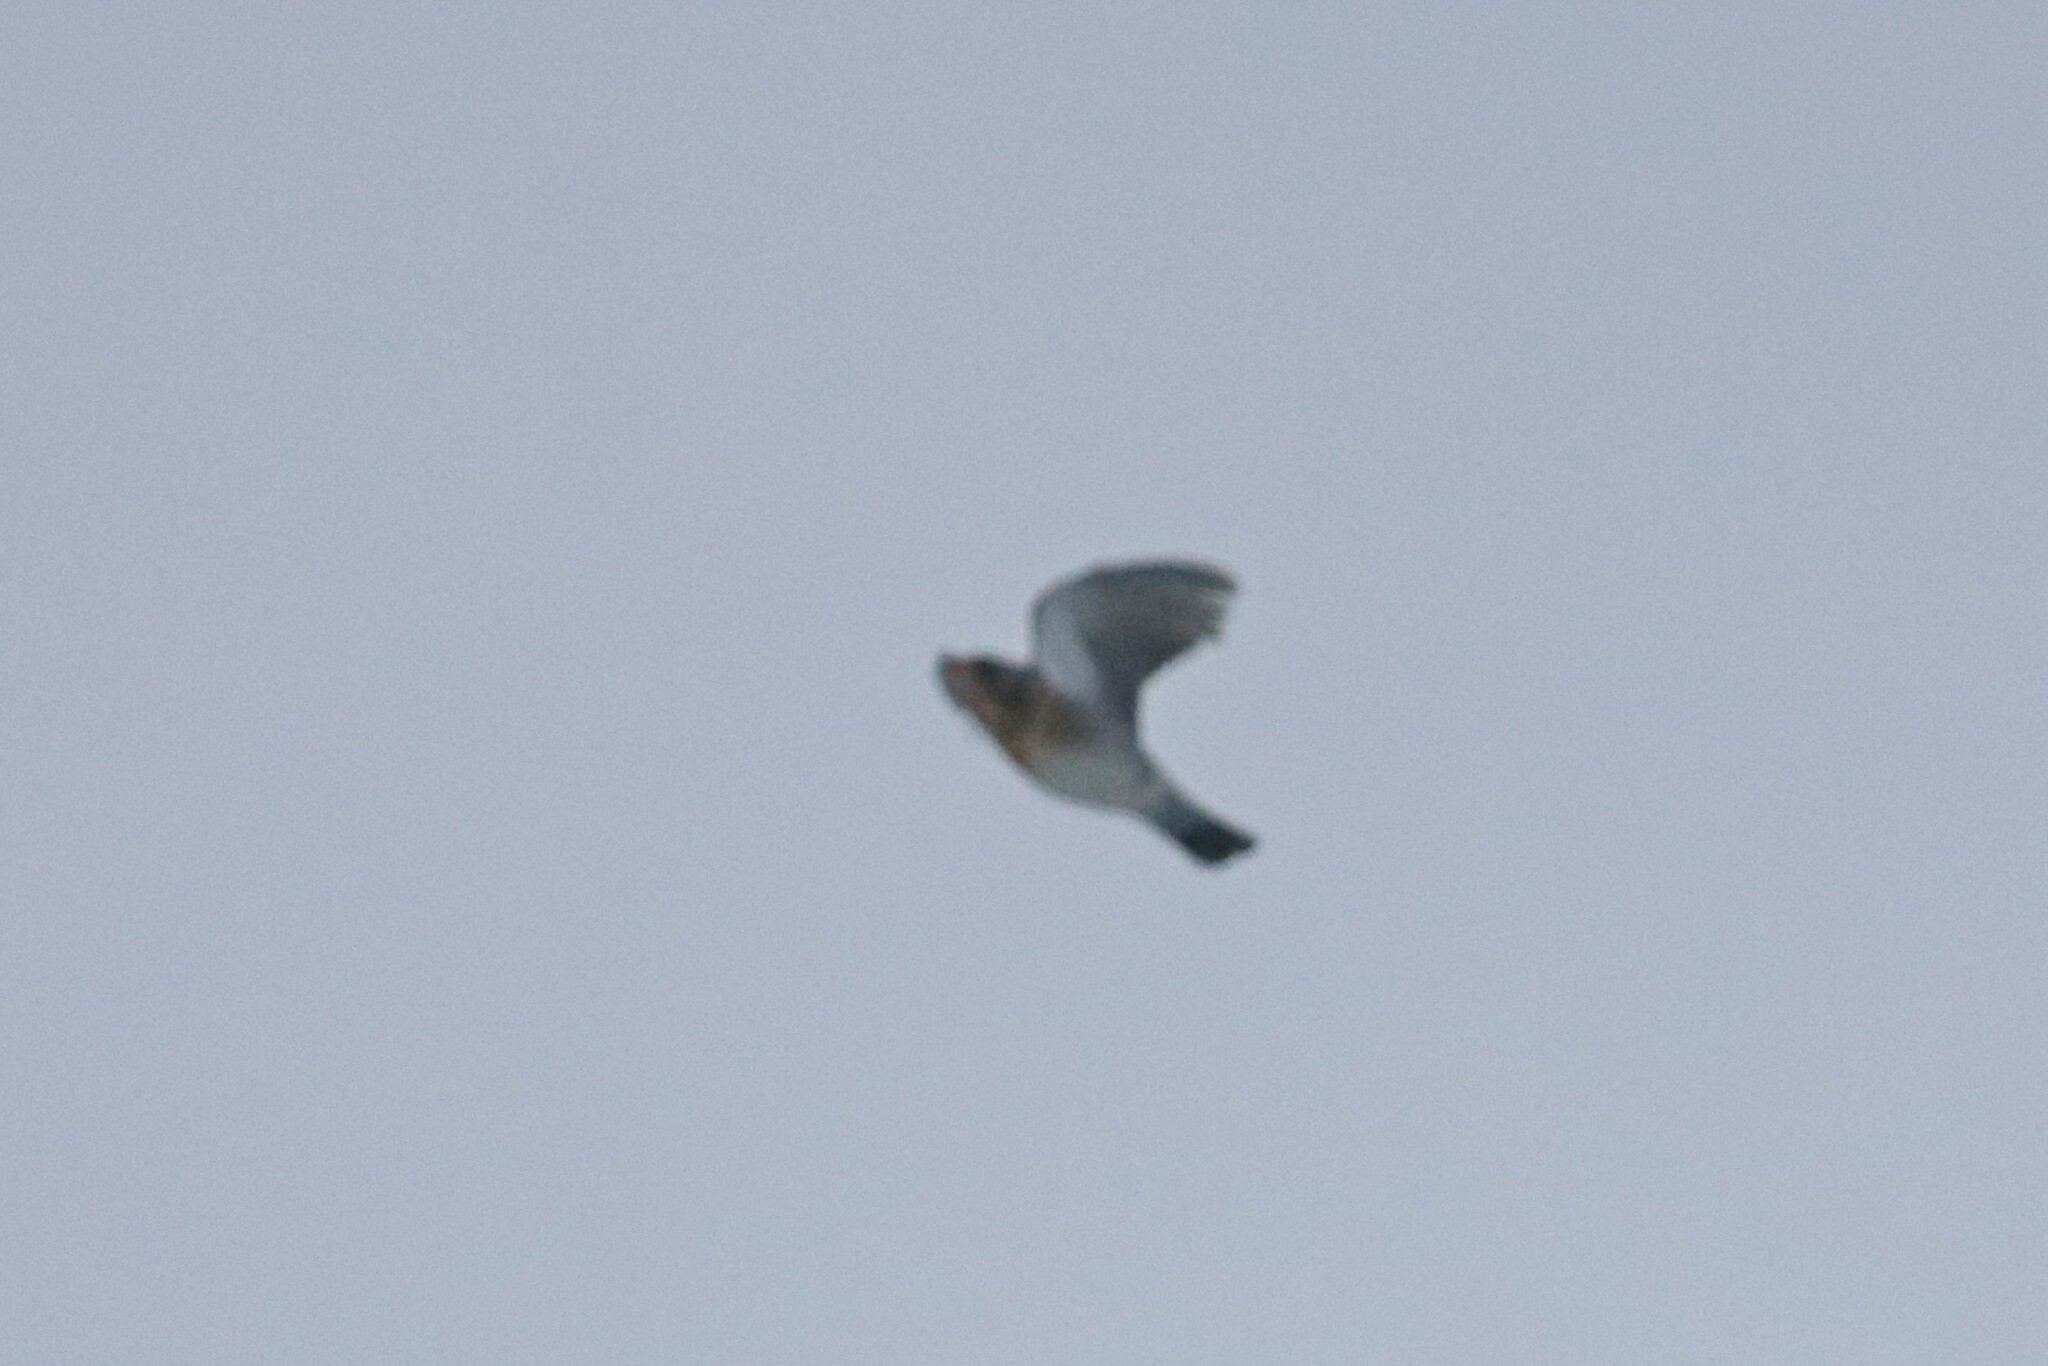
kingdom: Animalia
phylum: Chordata
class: Aves
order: Passeriformes
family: Turdidae
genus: Turdus
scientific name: Turdus pilaris
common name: Fieldfare
